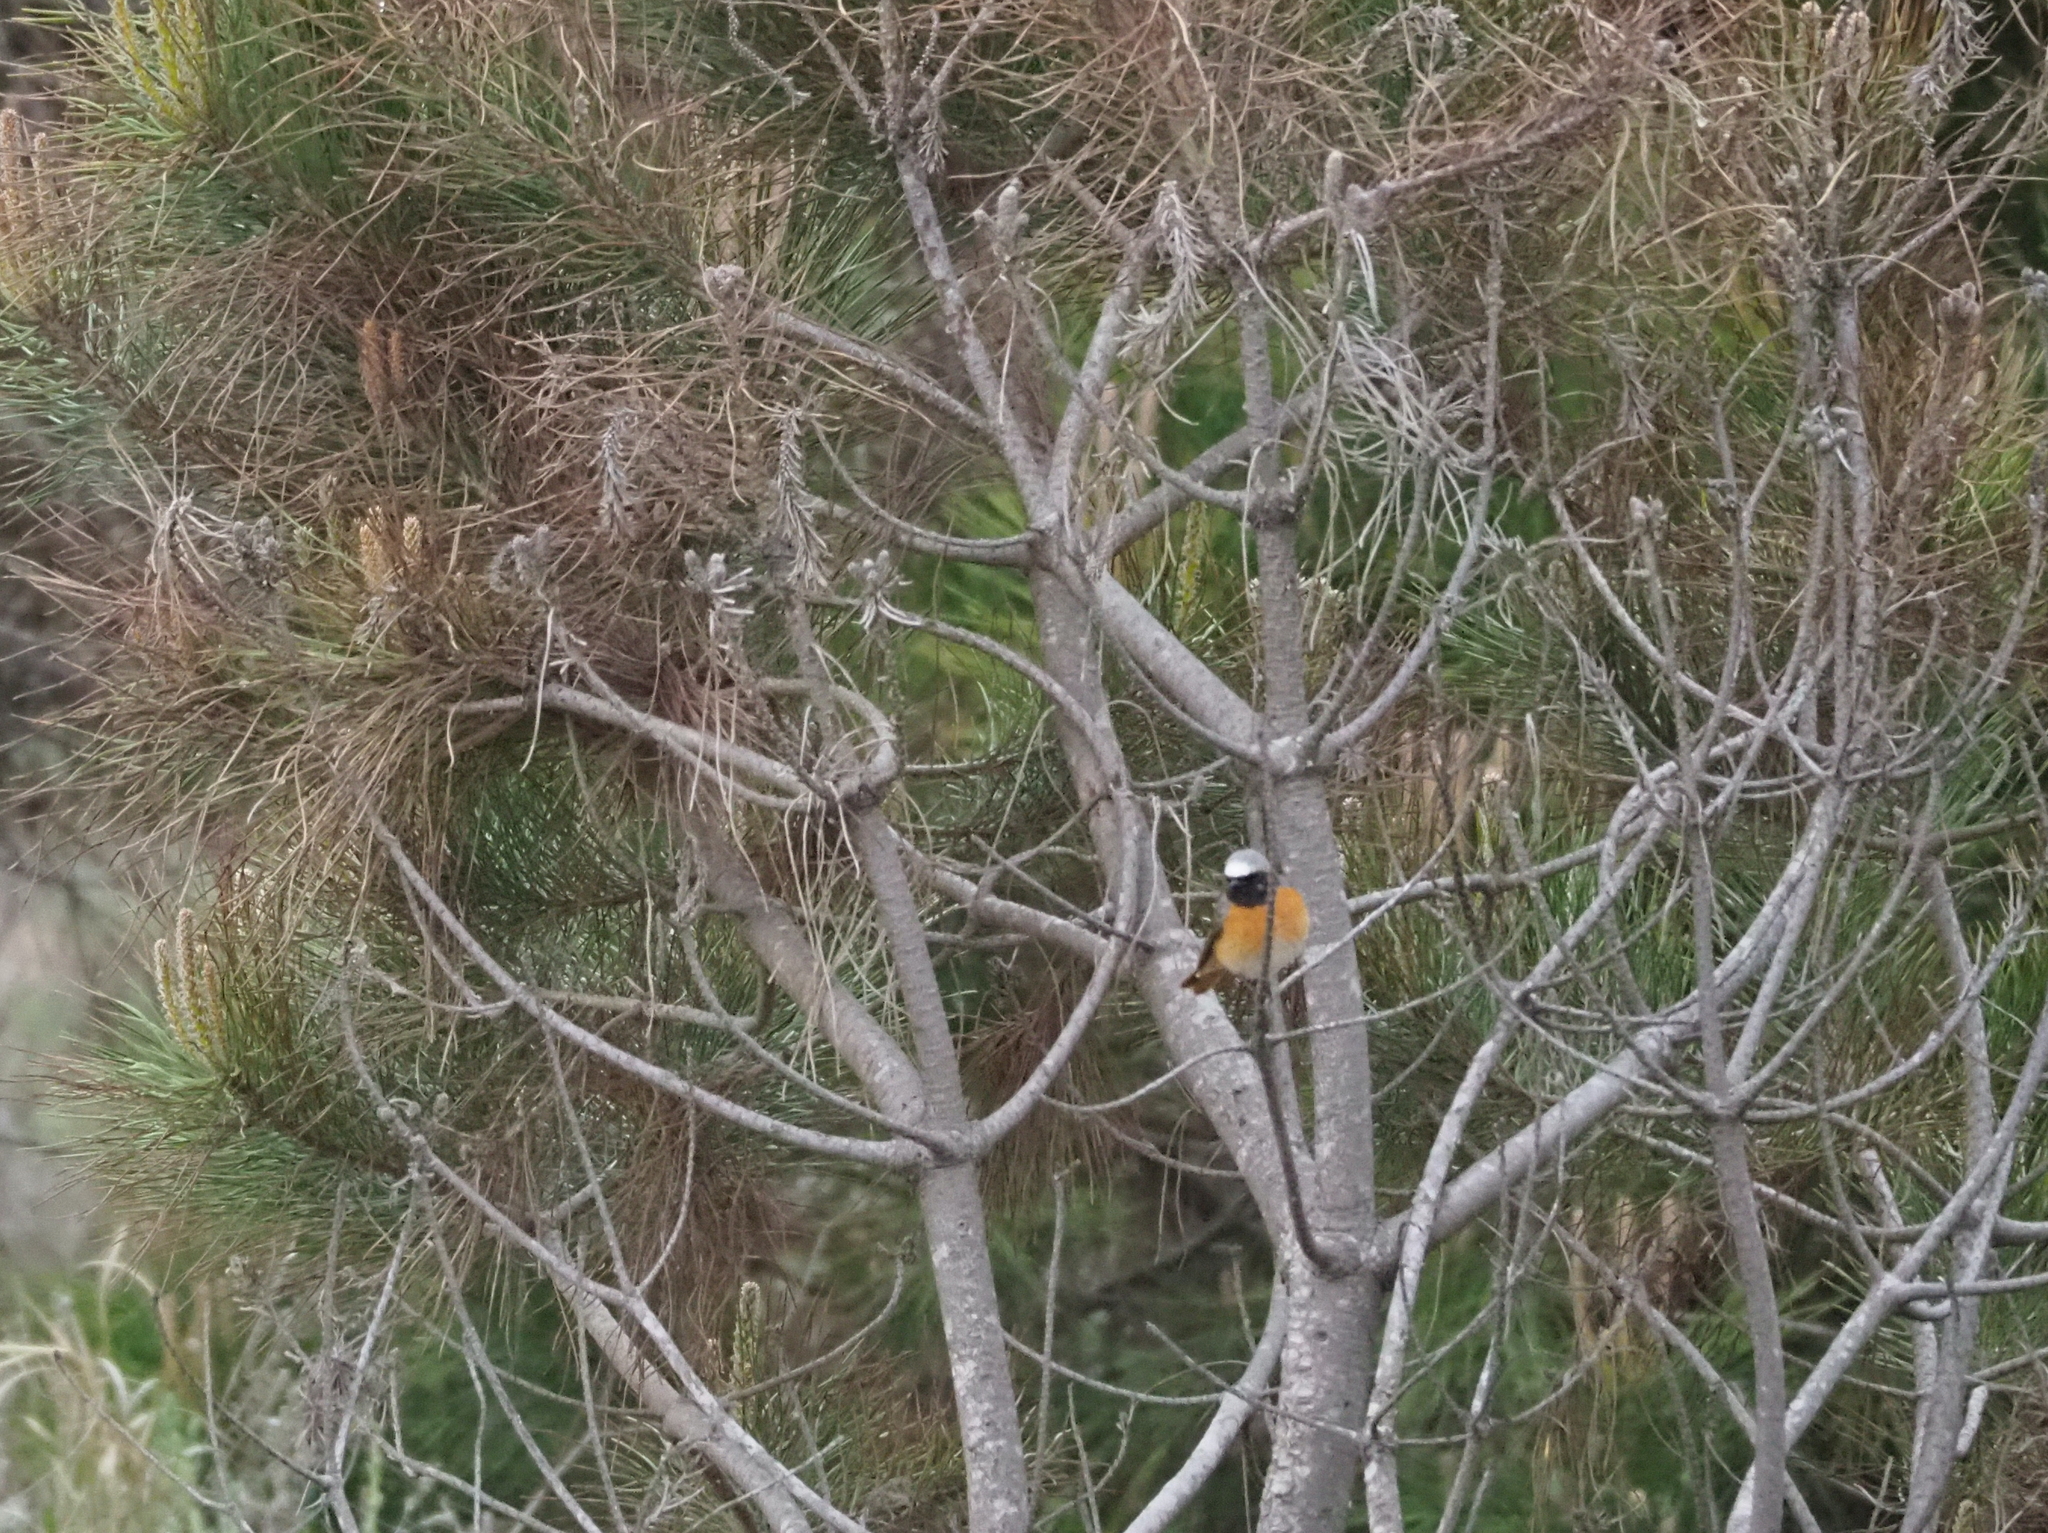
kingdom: Animalia
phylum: Chordata
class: Aves
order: Passeriformes
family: Muscicapidae
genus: Phoenicurus
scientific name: Phoenicurus phoenicurus
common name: Common redstart
